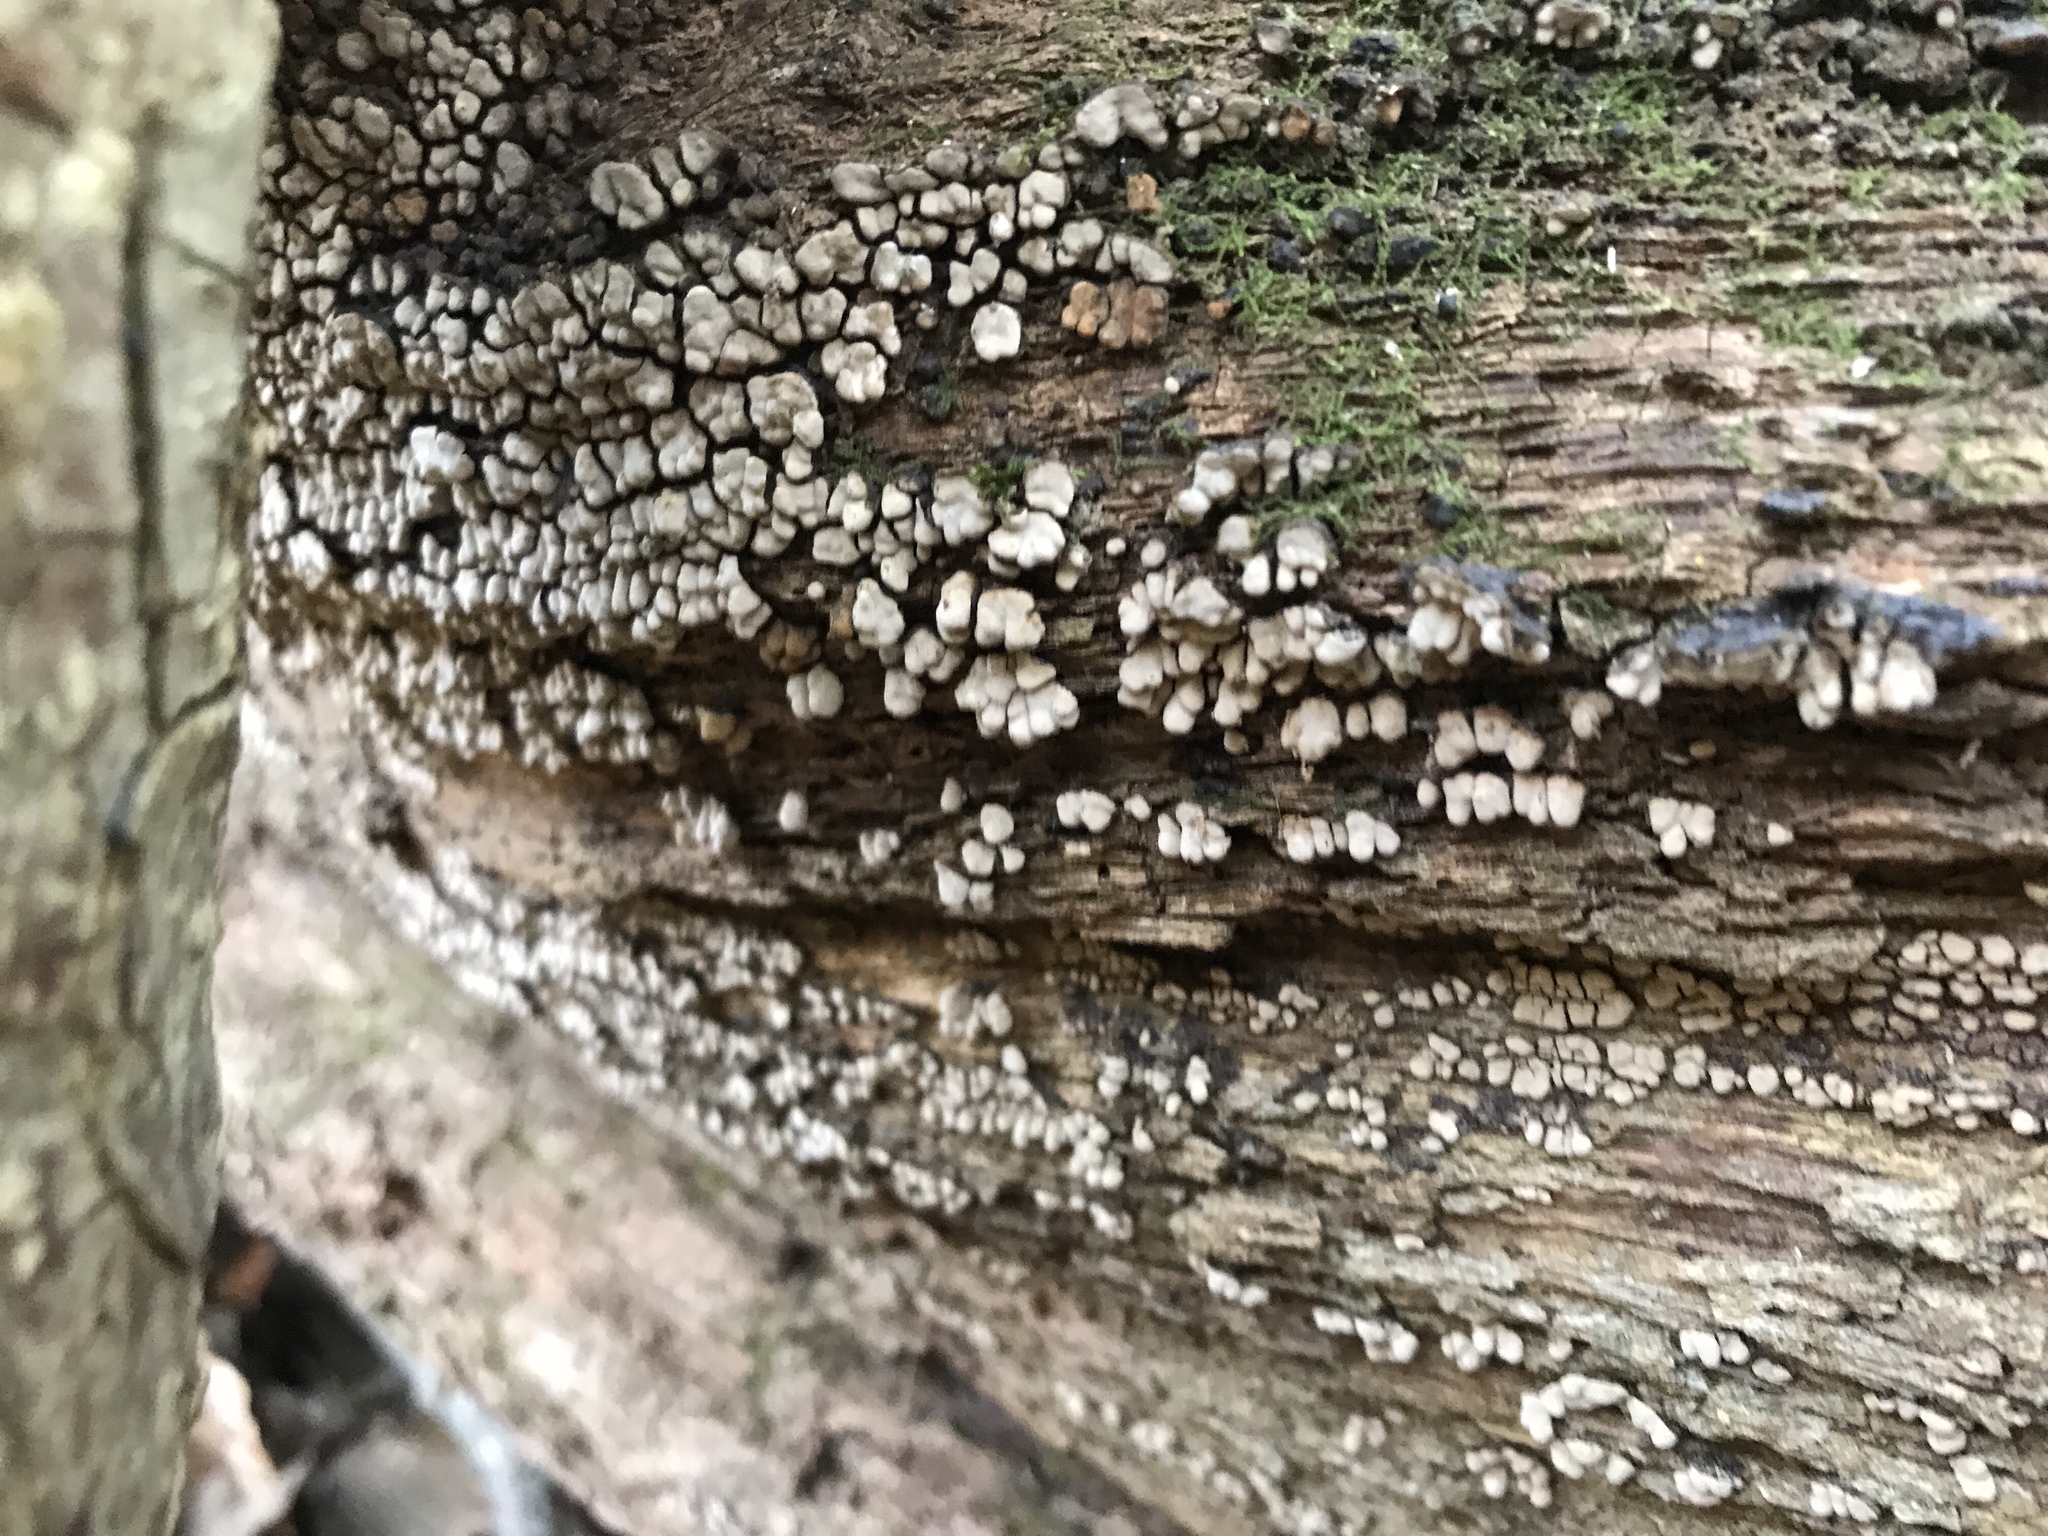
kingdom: Fungi
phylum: Basidiomycota
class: Agaricomycetes
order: Russulales
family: Stereaceae
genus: Xylobolus
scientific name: Xylobolus frustulatus
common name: Ceramic parchment
